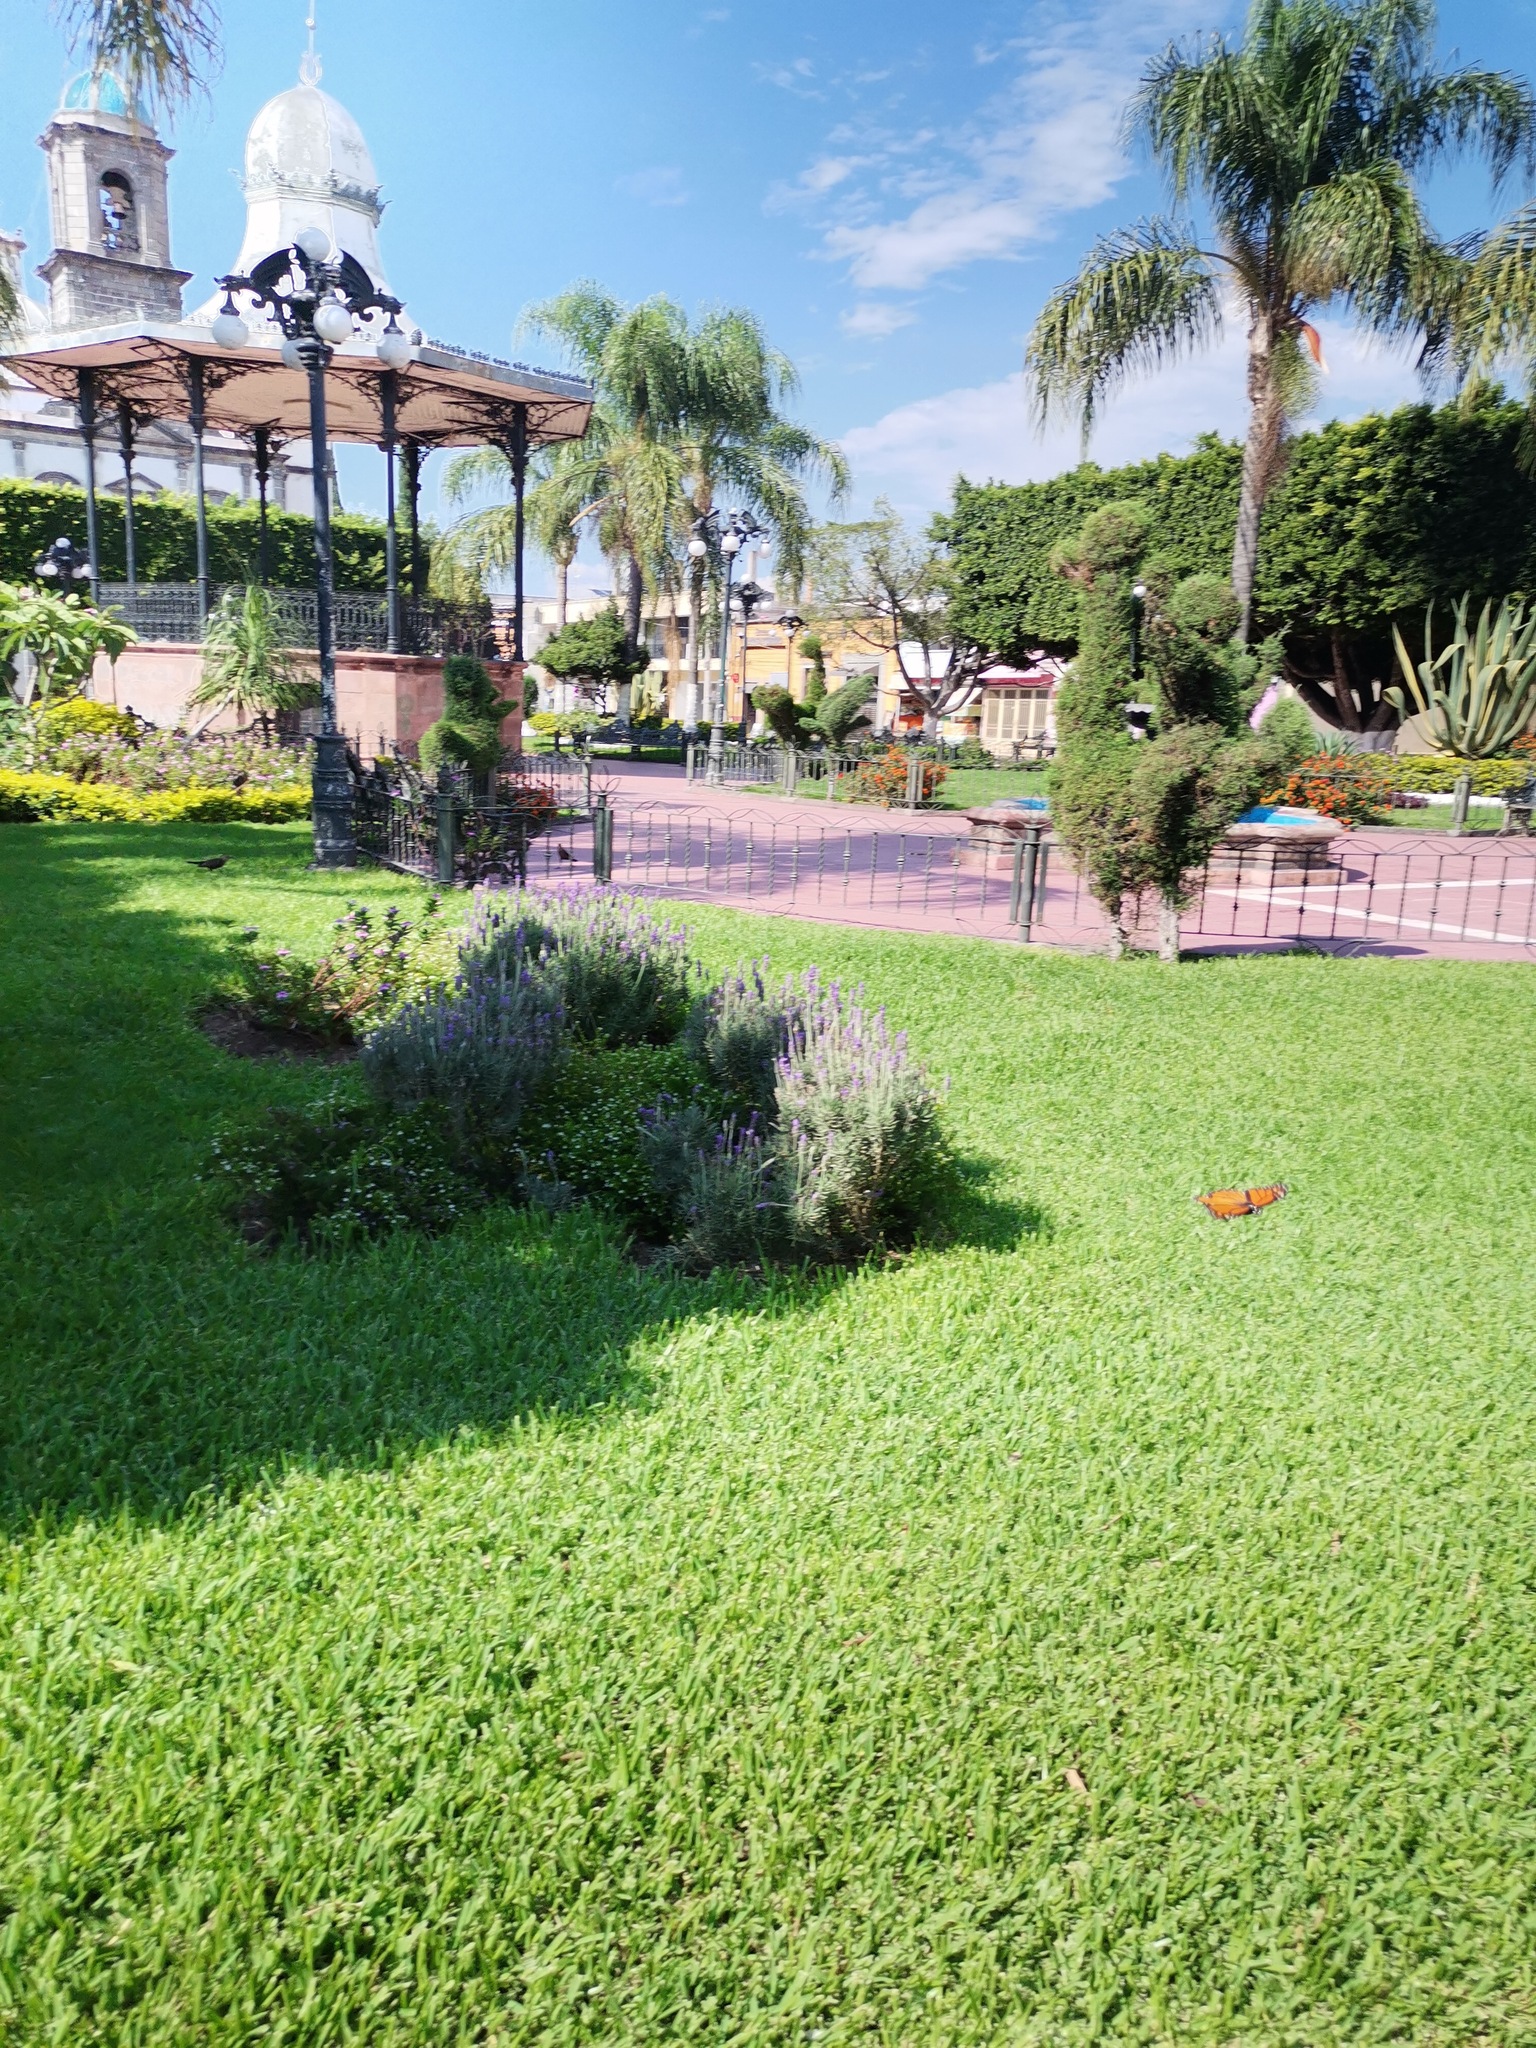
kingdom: Animalia
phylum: Arthropoda
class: Insecta
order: Lepidoptera
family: Nymphalidae
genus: Danaus
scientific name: Danaus plexippus
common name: Monarch
